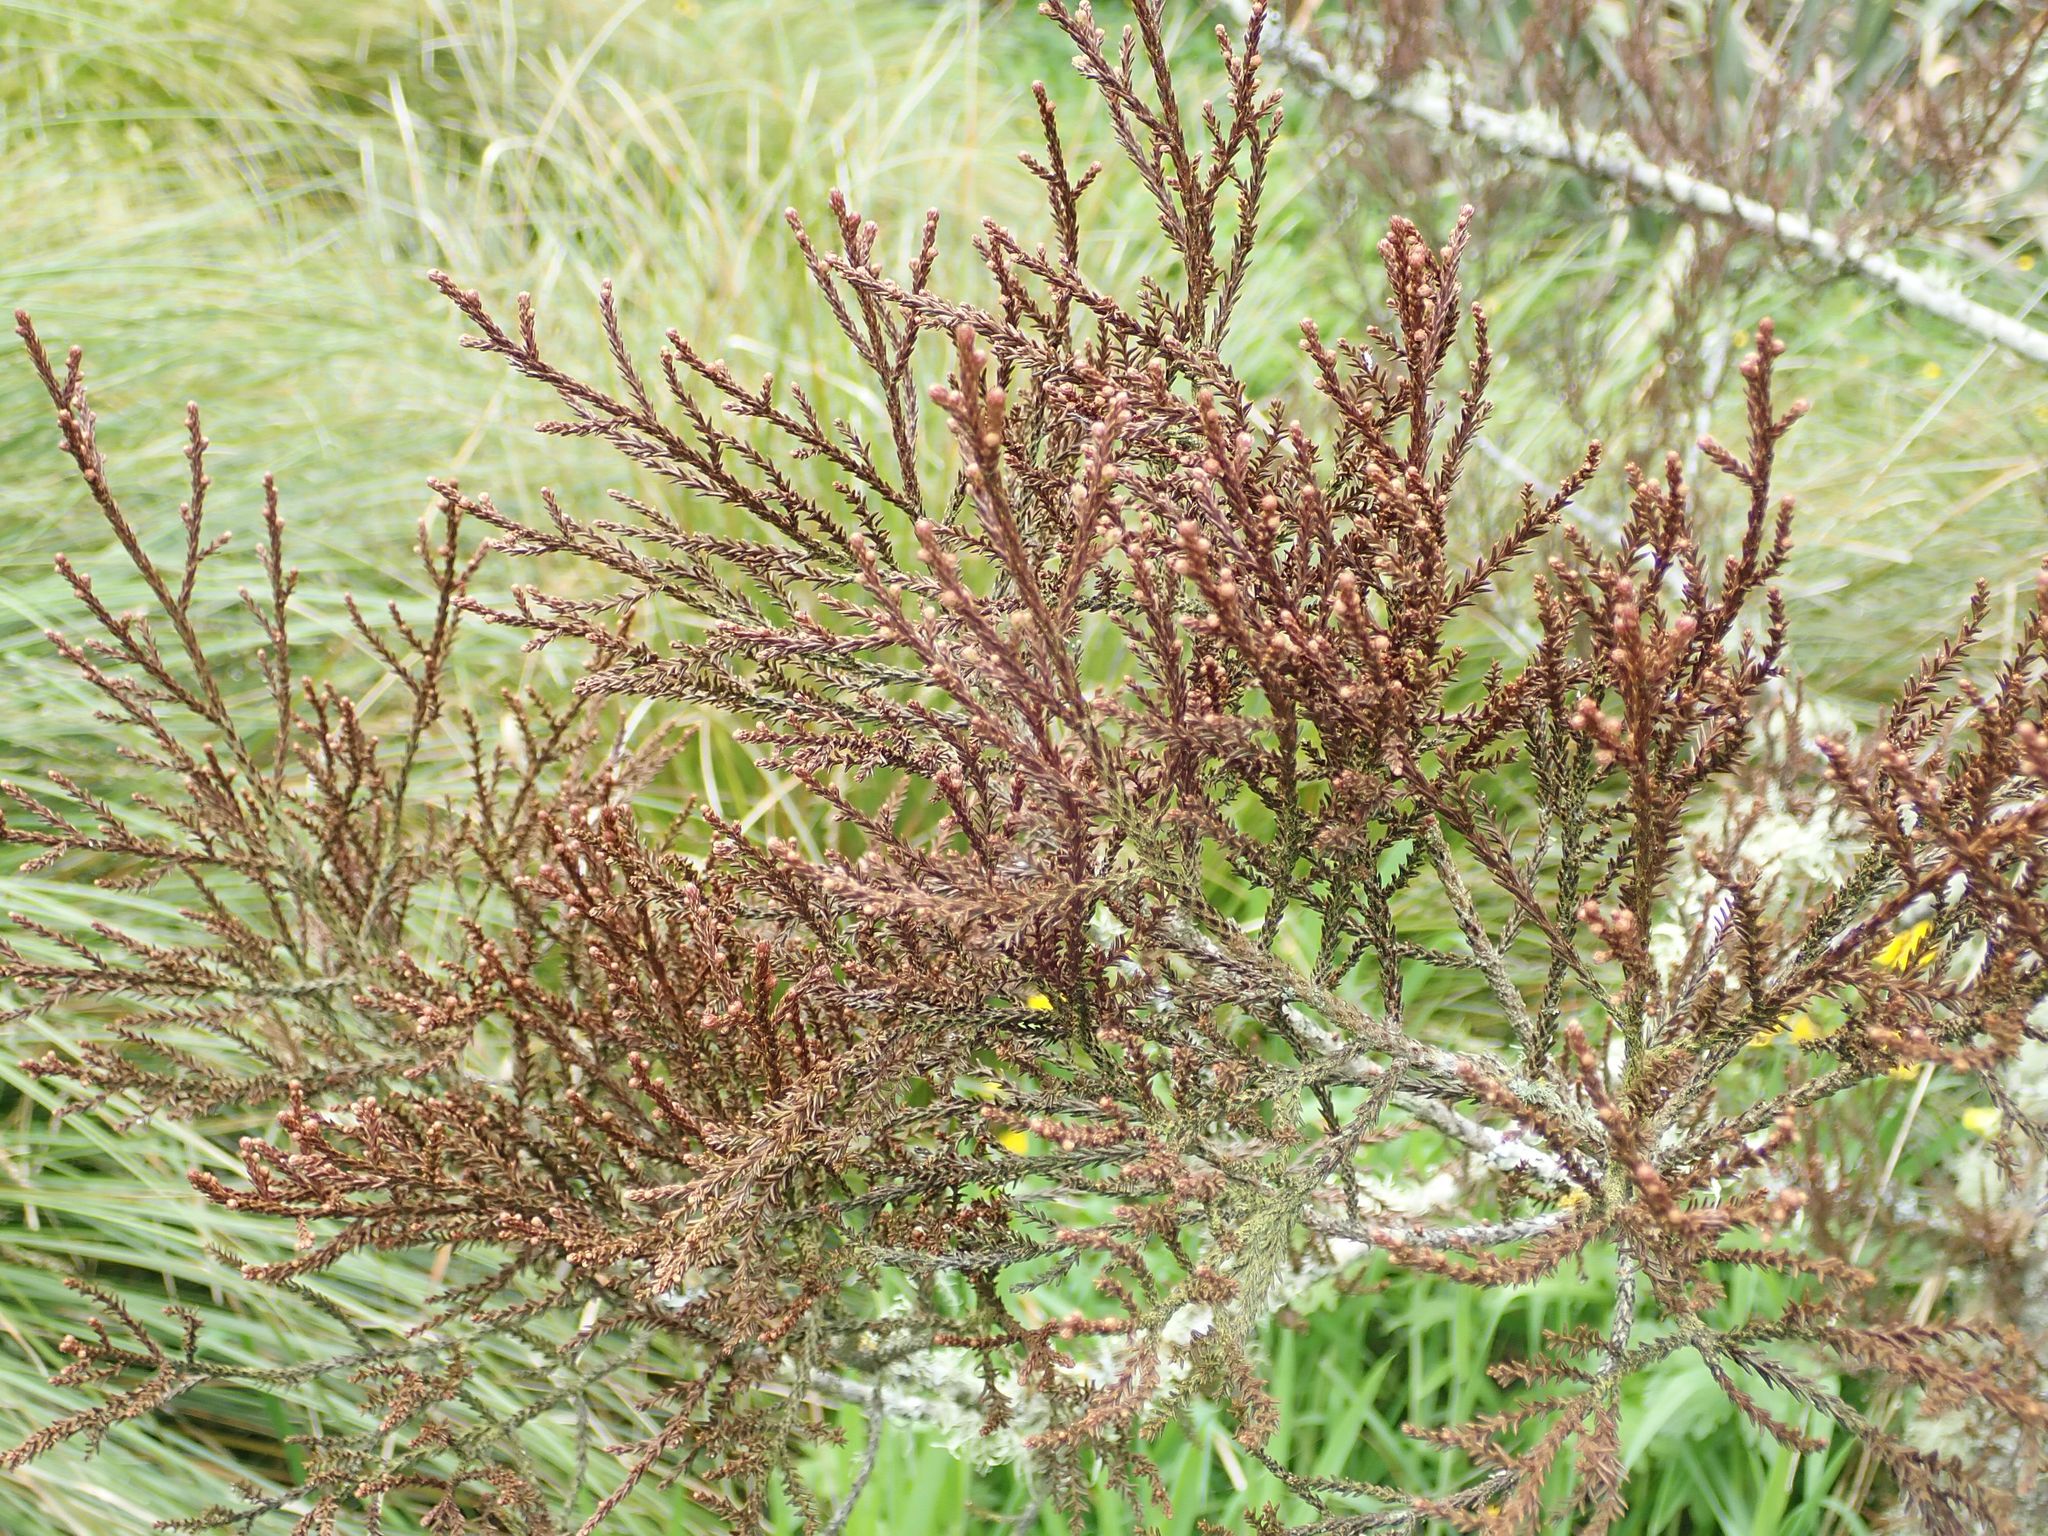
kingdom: Plantae
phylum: Tracheophyta
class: Pinopsida
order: Pinales
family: Podocarpaceae
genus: Dacrycarpus
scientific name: Dacrycarpus dacrydioides
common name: White pine
